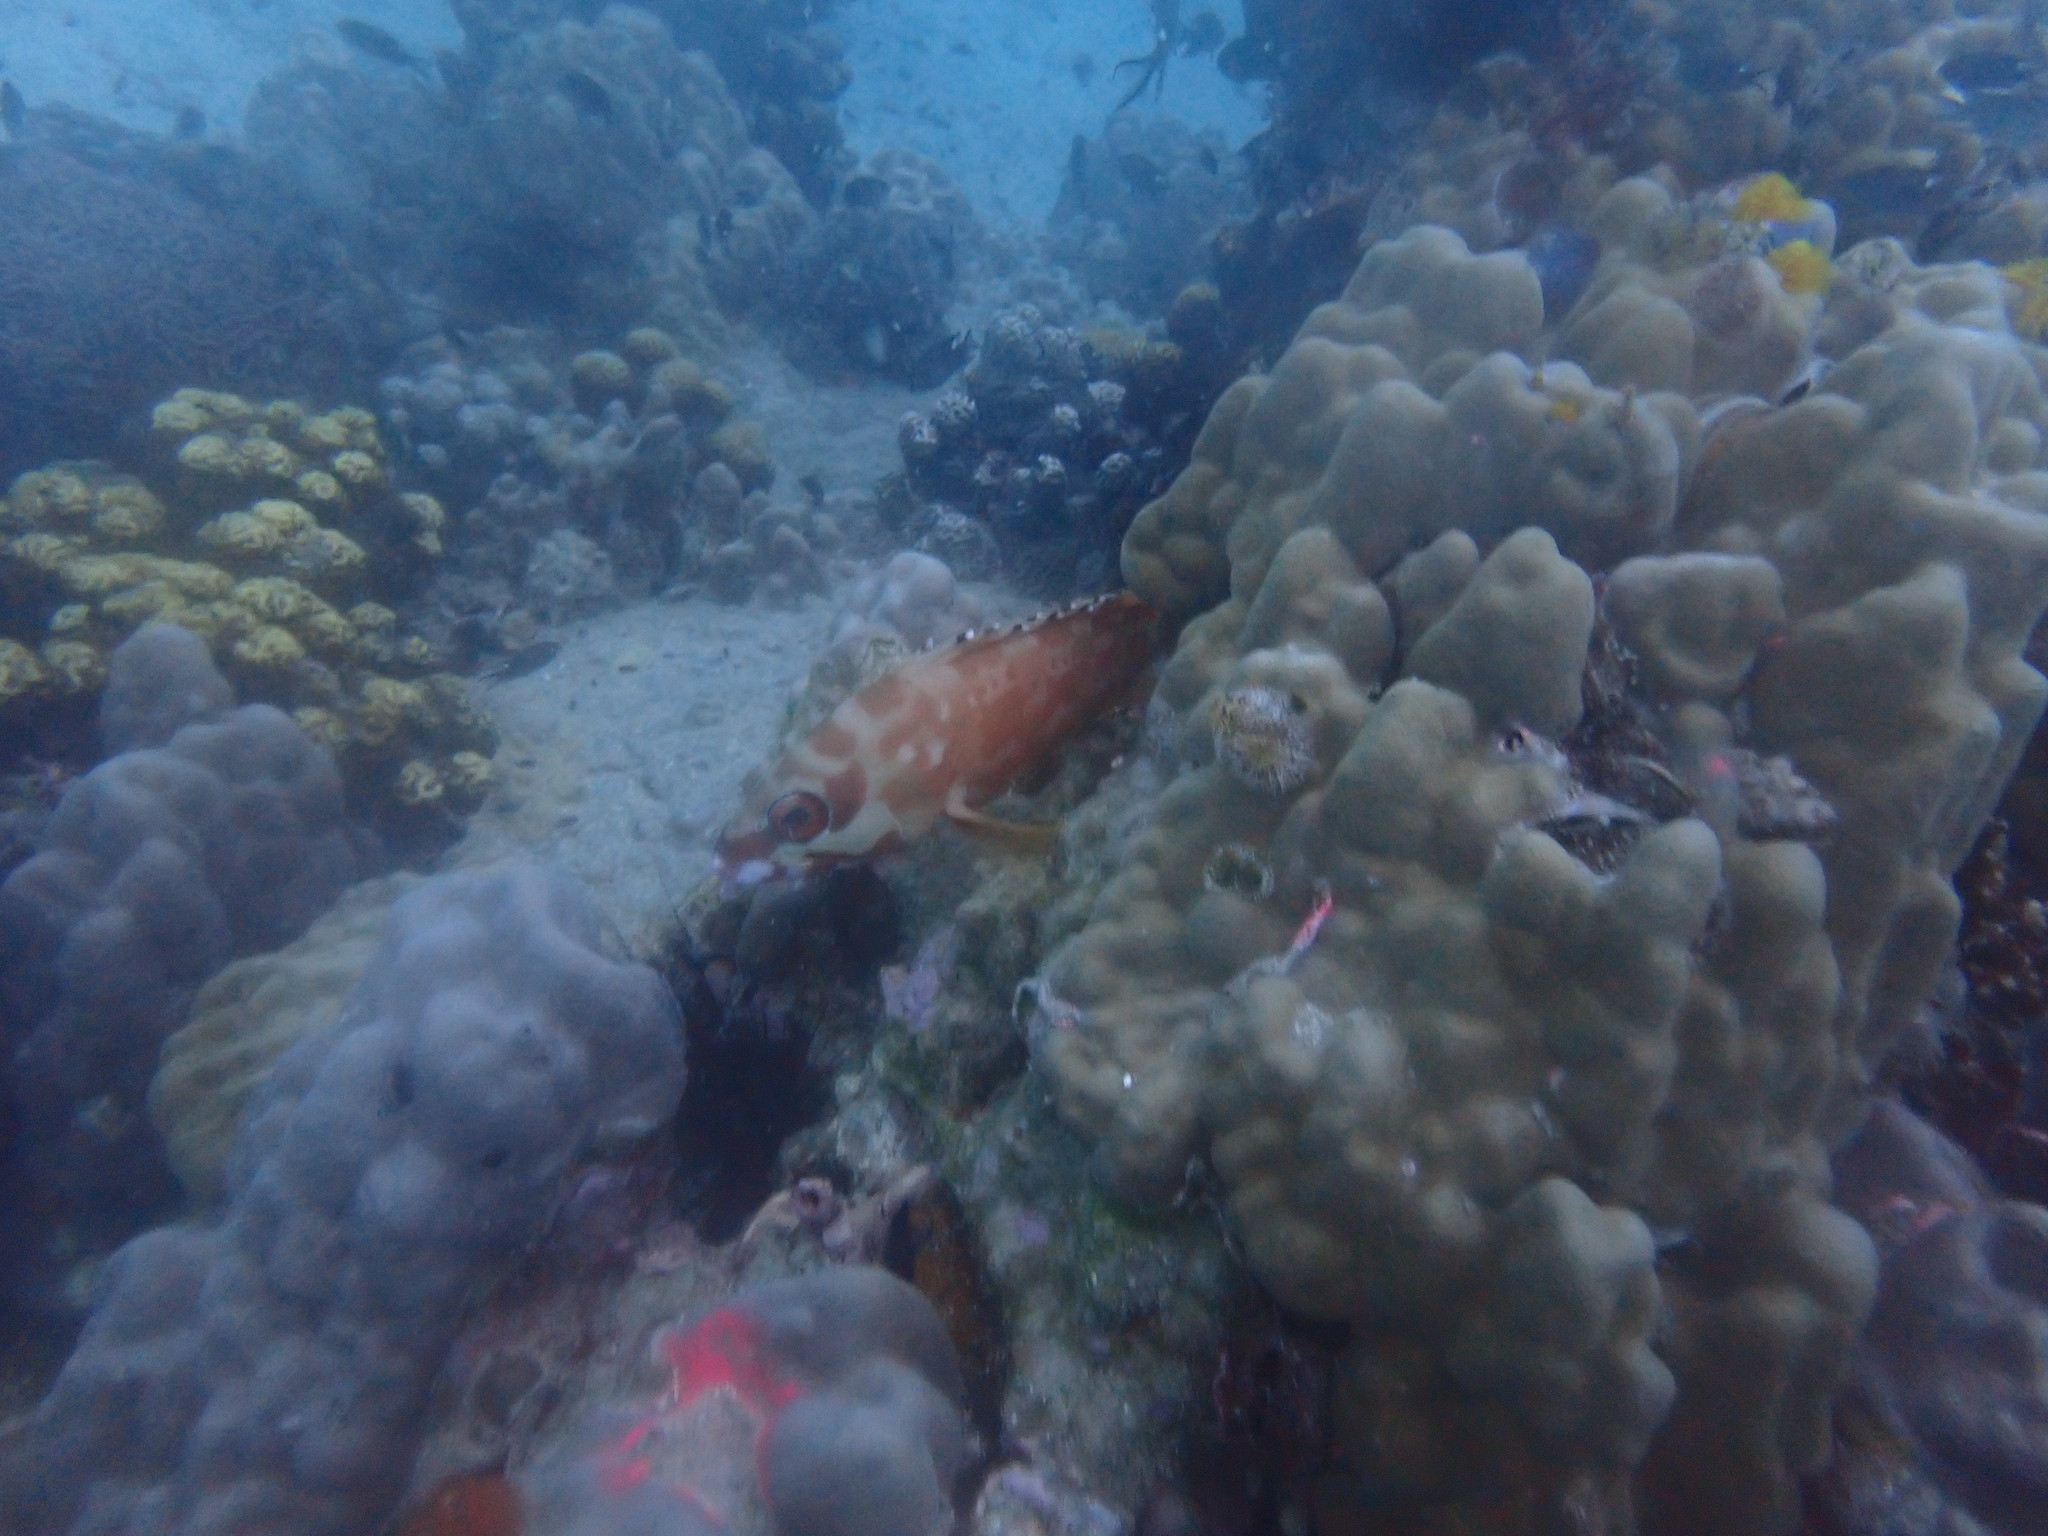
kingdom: Animalia
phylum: Chordata
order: Perciformes
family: Serranidae
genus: Epinephelus
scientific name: Epinephelus fasciatus
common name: Blacktip grouper
